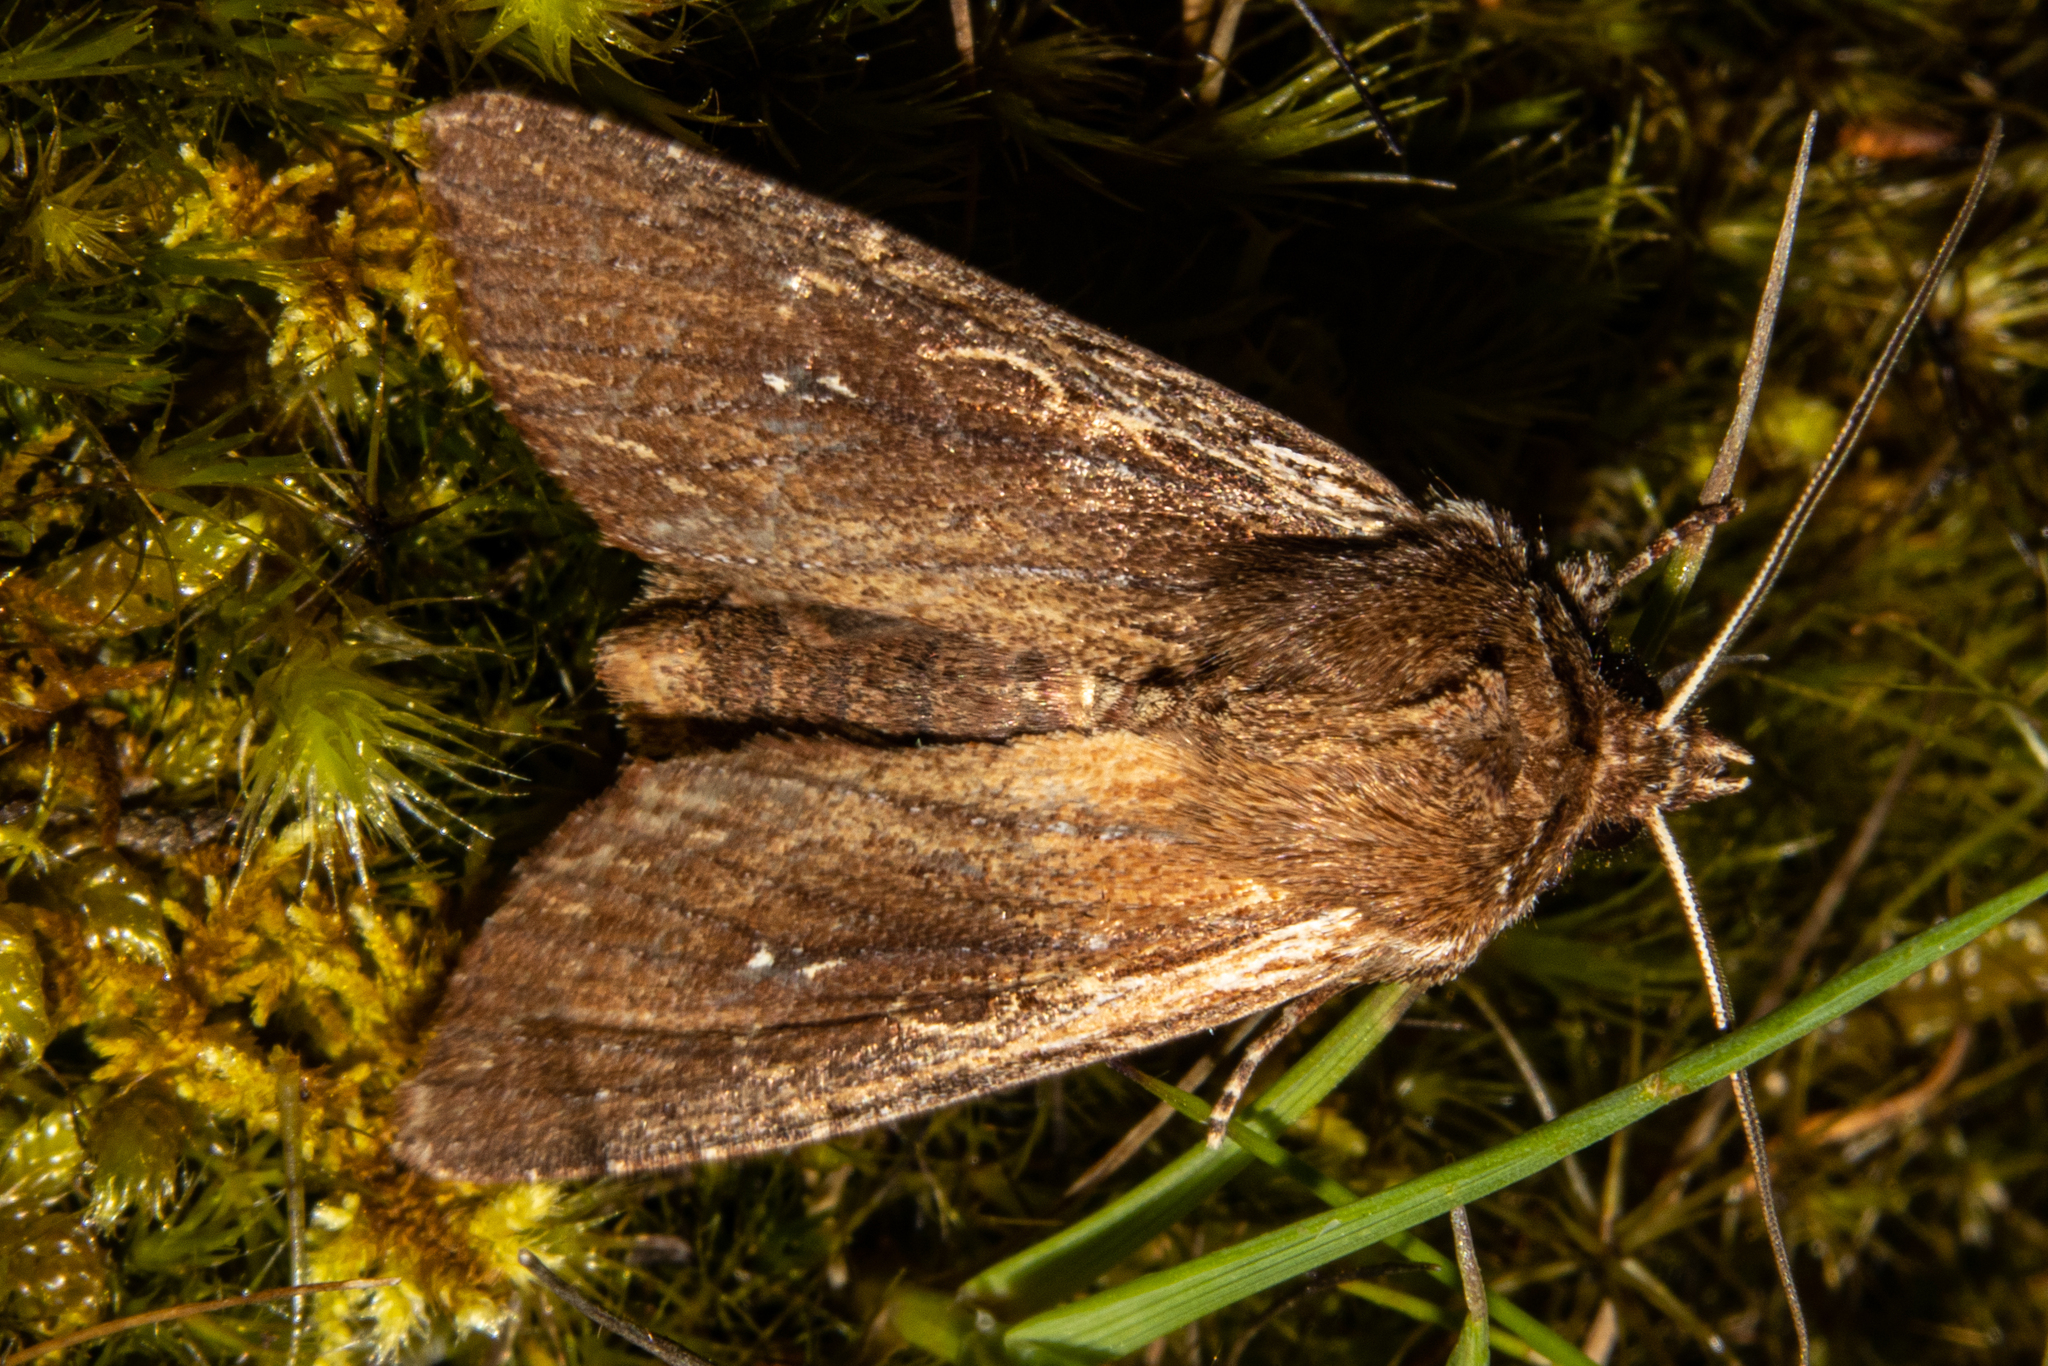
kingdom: Animalia
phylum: Arthropoda
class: Insecta
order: Lepidoptera
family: Noctuidae
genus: Ichneutica
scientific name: Ichneutica
